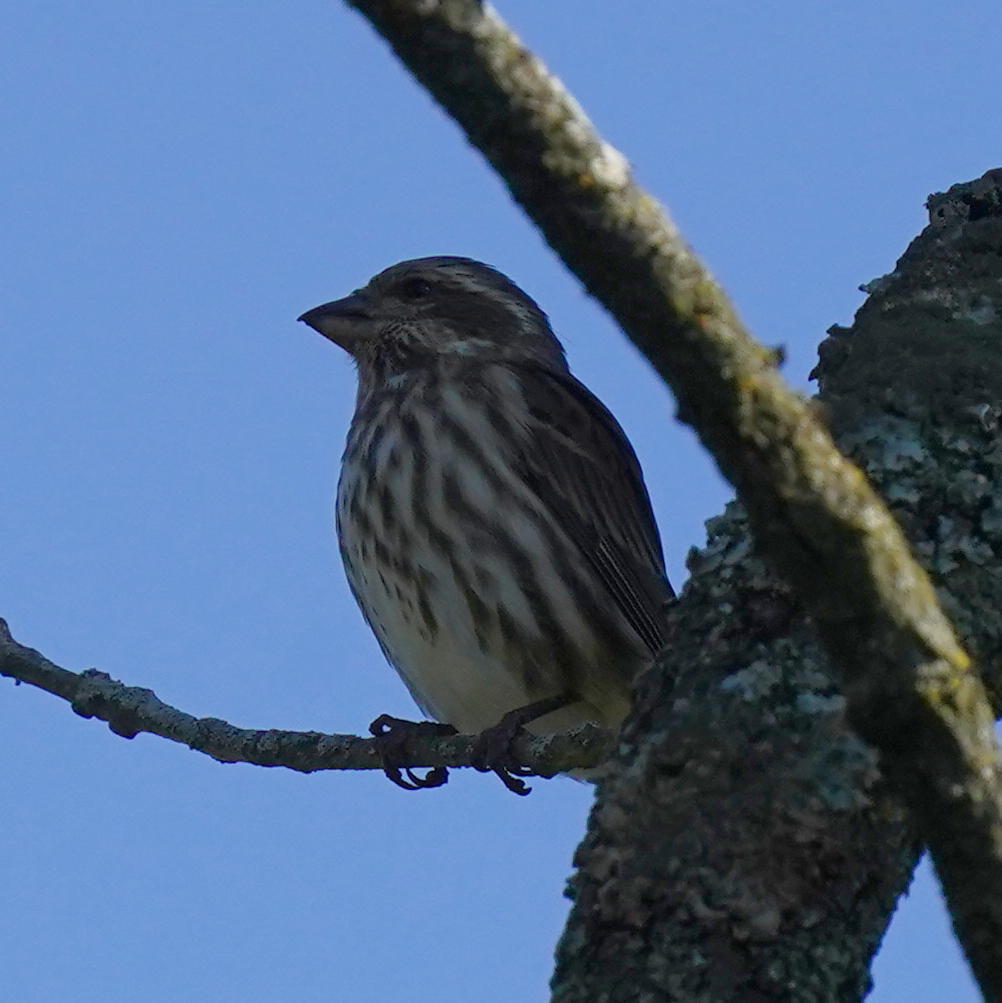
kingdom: Animalia
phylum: Chordata
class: Aves
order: Passeriformes
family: Fringillidae
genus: Haemorhous
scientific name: Haemorhous purpureus
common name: Purple finch
